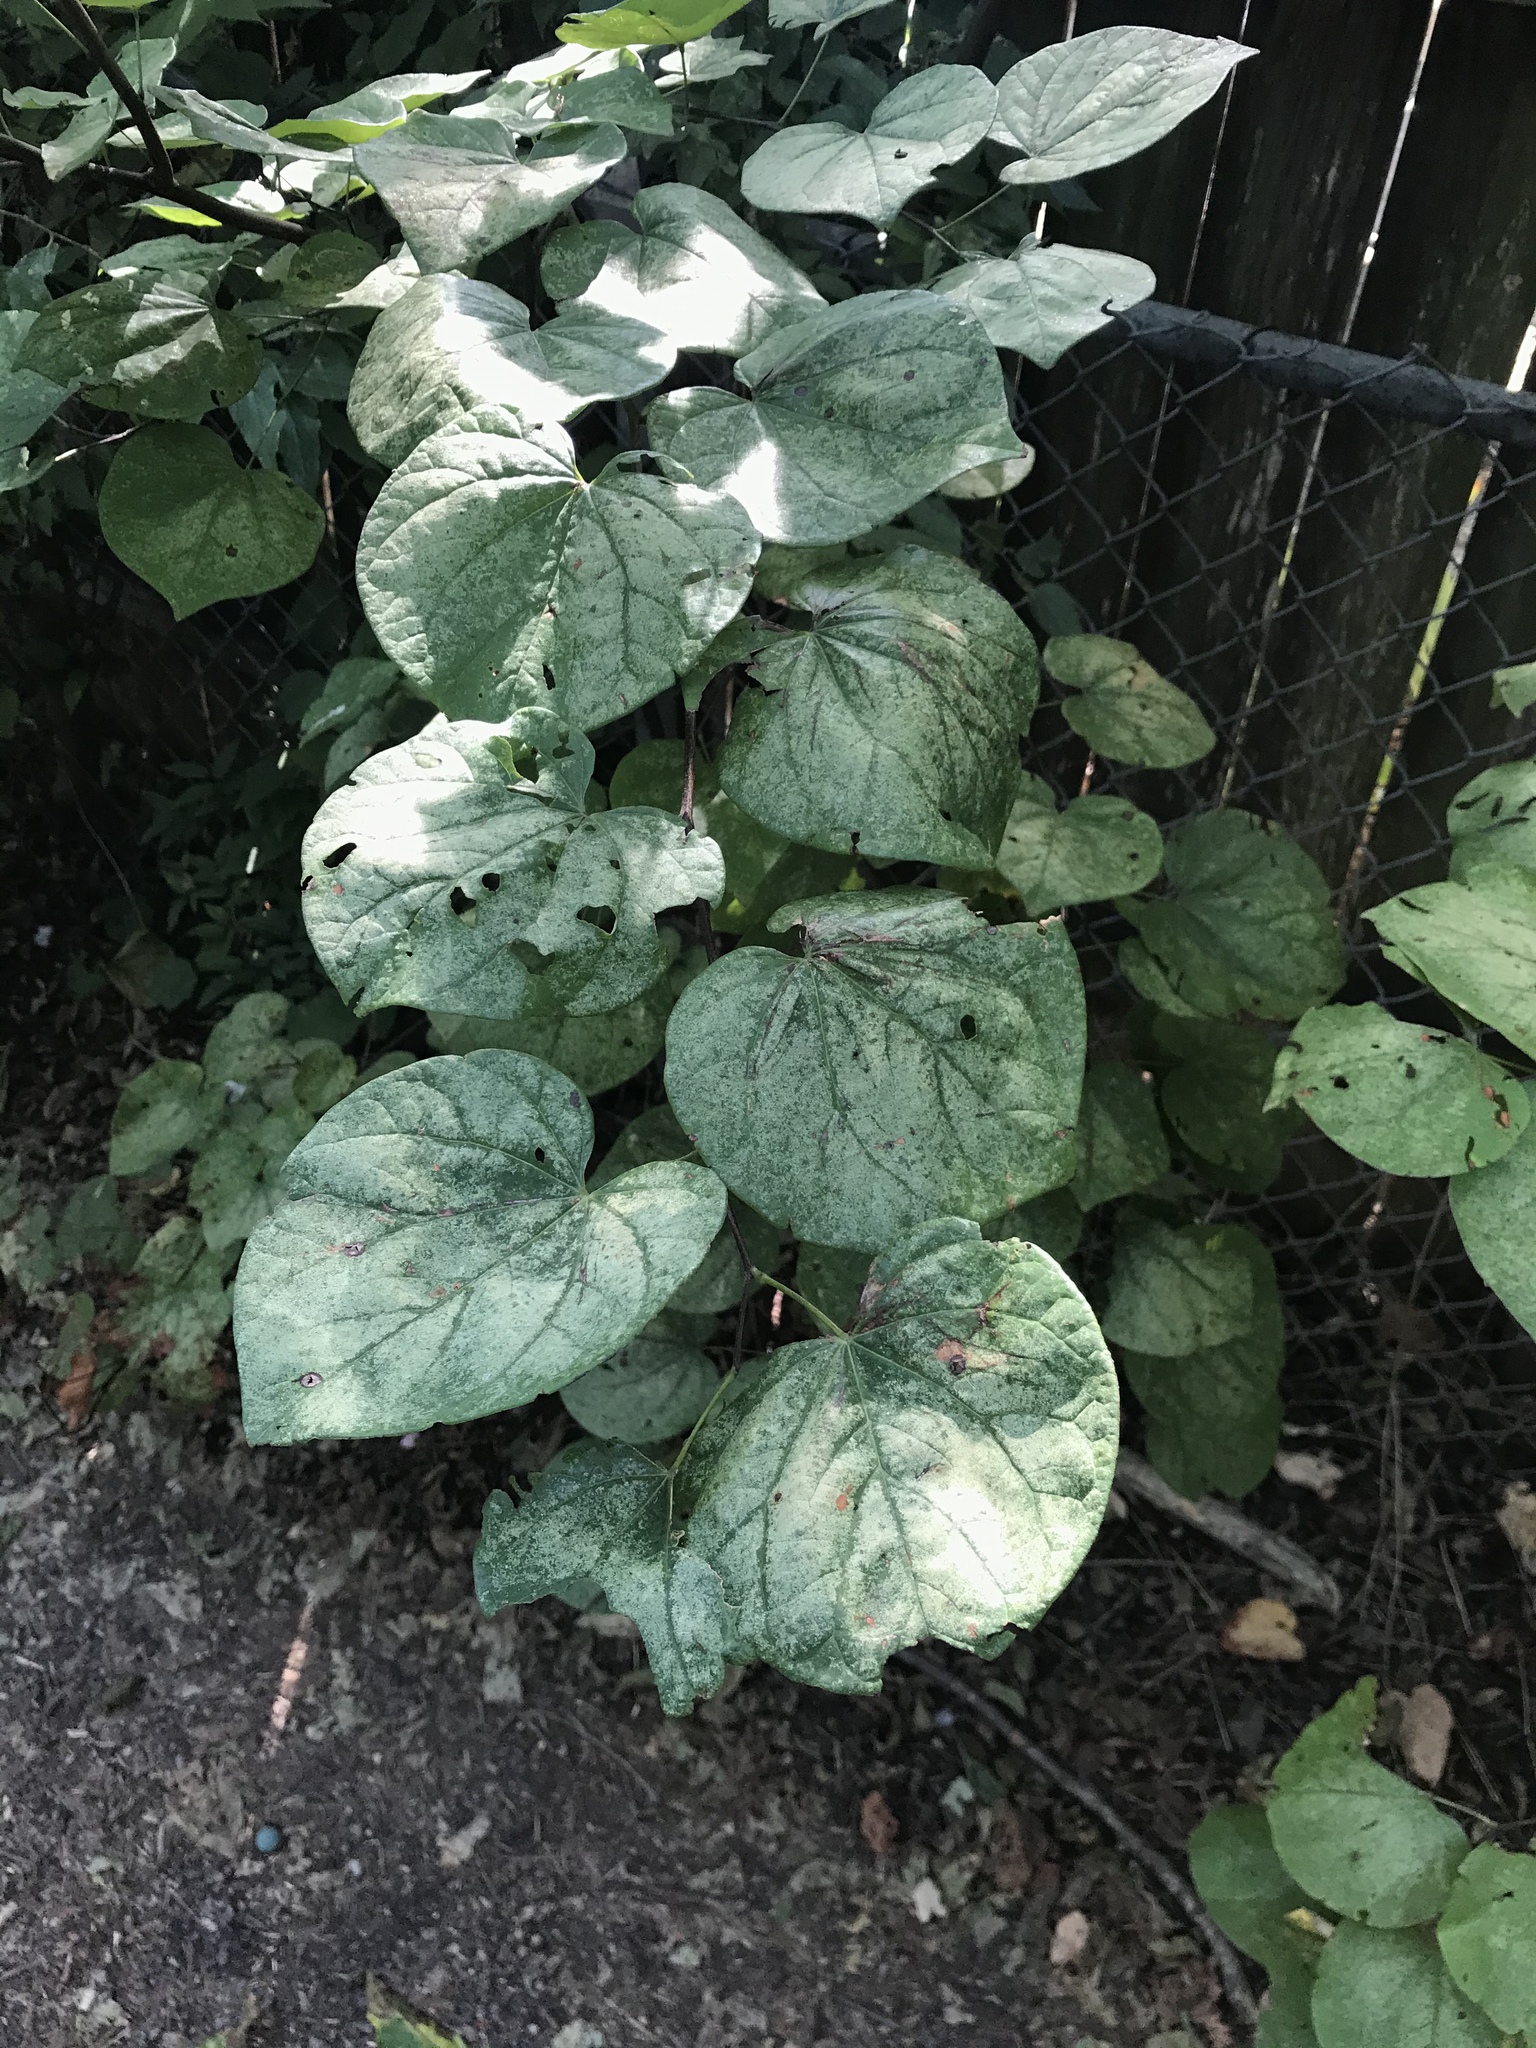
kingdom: Plantae
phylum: Tracheophyta
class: Magnoliopsida
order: Fabales
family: Fabaceae
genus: Cercis
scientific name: Cercis canadensis
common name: Eastern redbud
